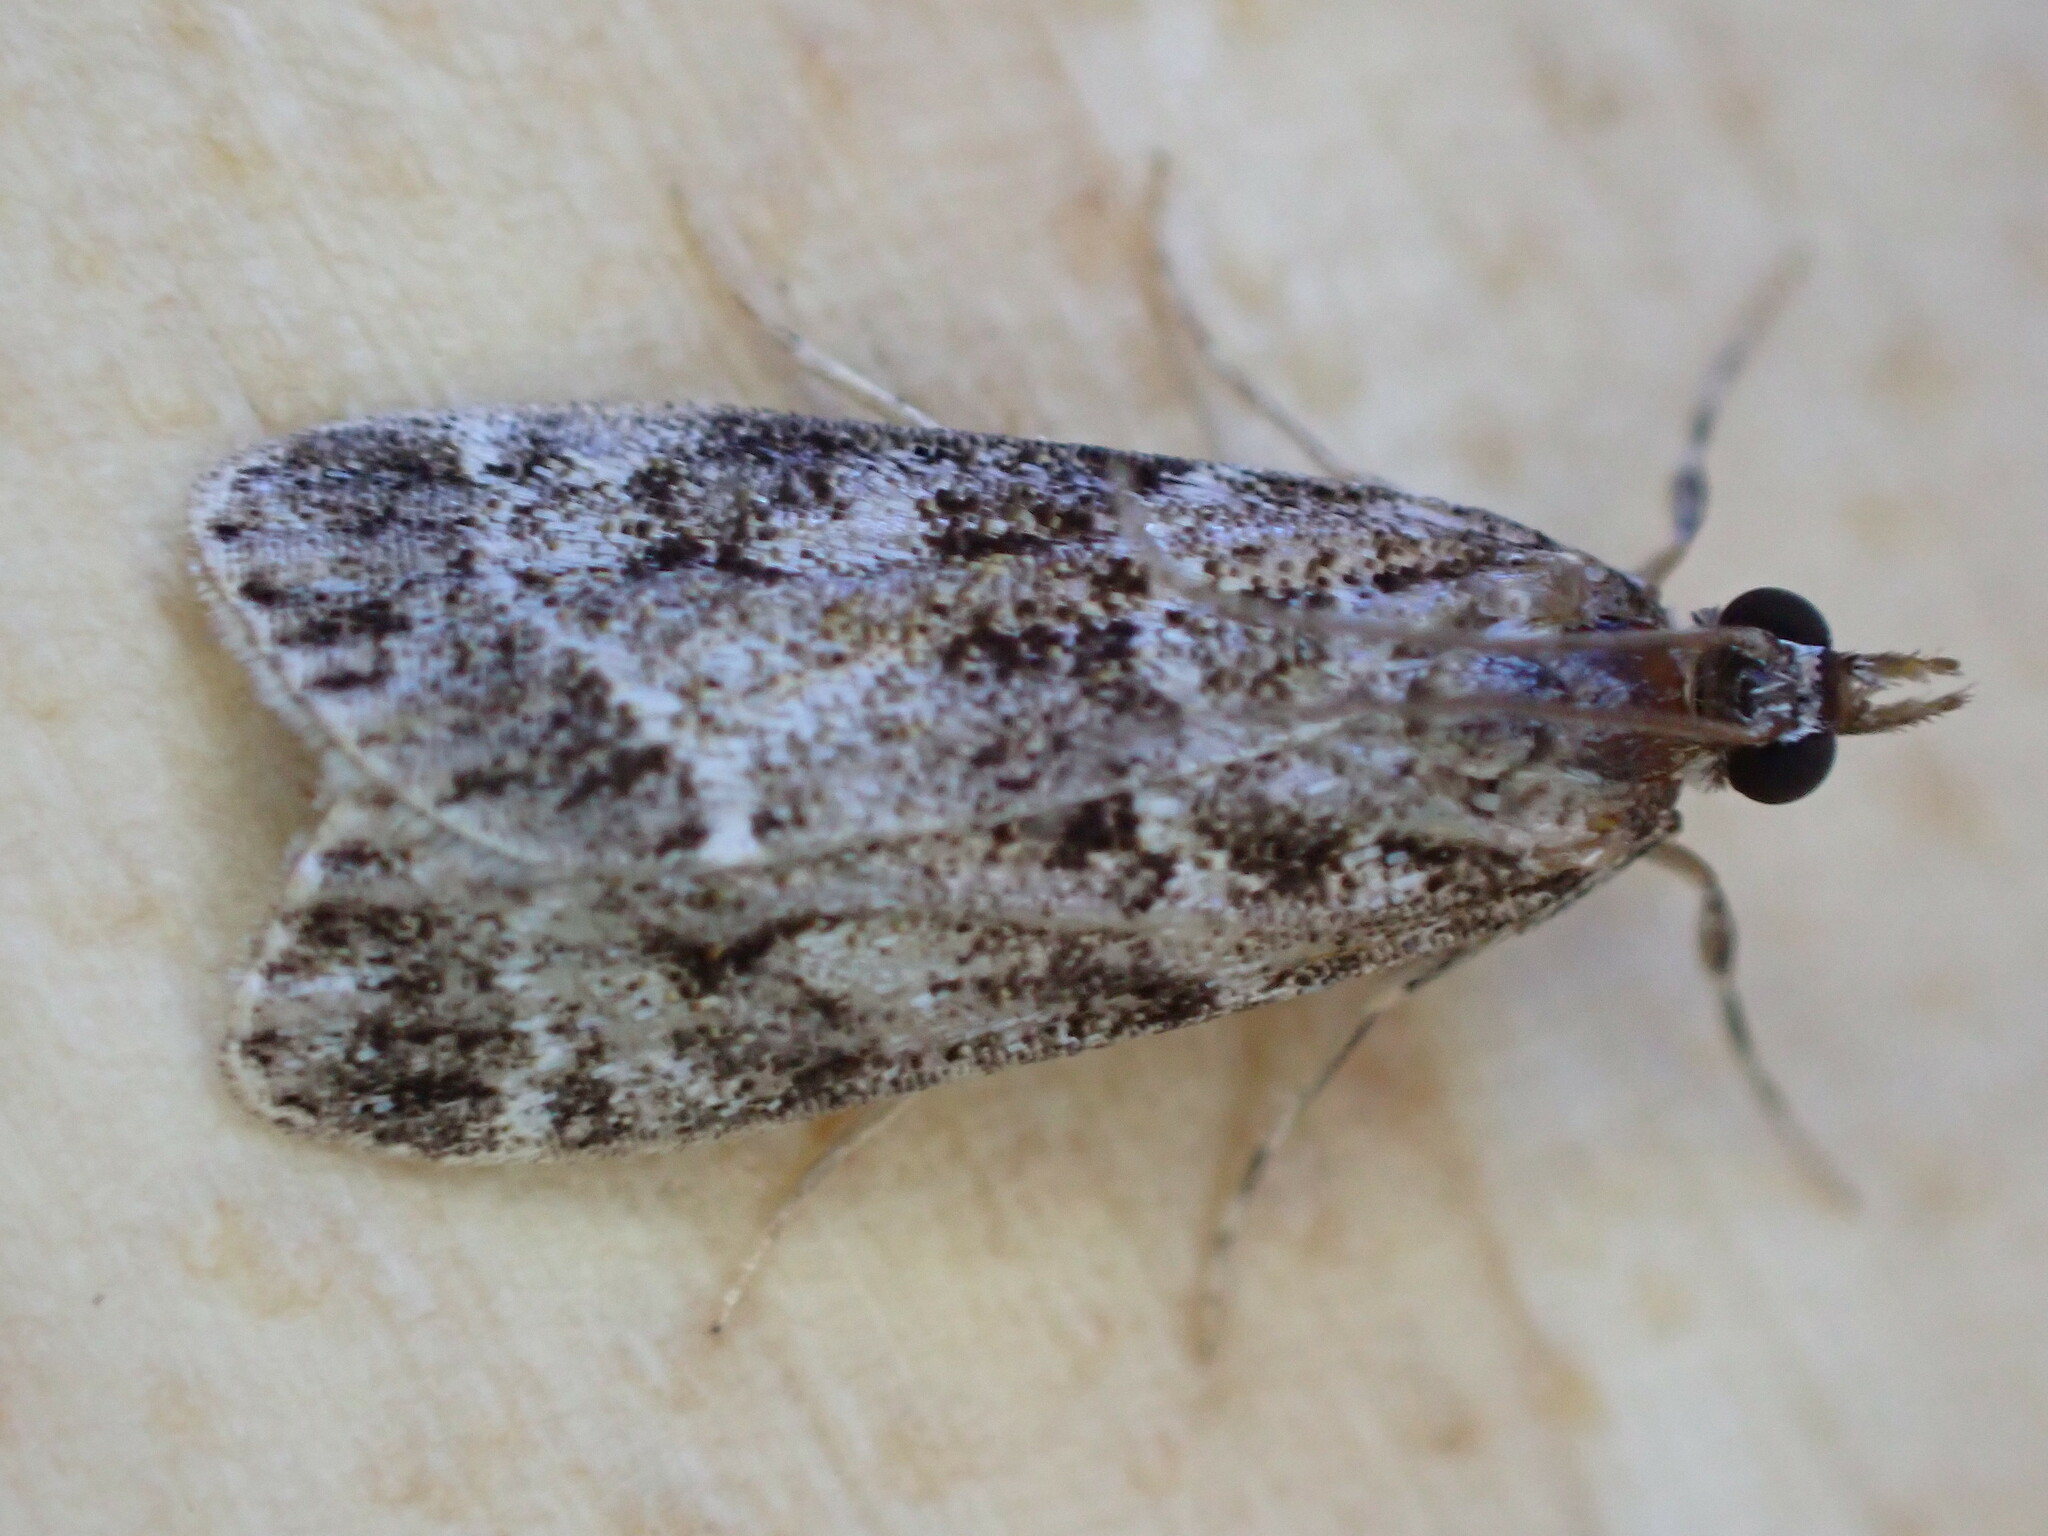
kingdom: Animalia
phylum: Arthropoda
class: Insecta
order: Lepidoptera
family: Crambidae
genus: Eudonia
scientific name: Eudonia mercurella
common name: Small grey
